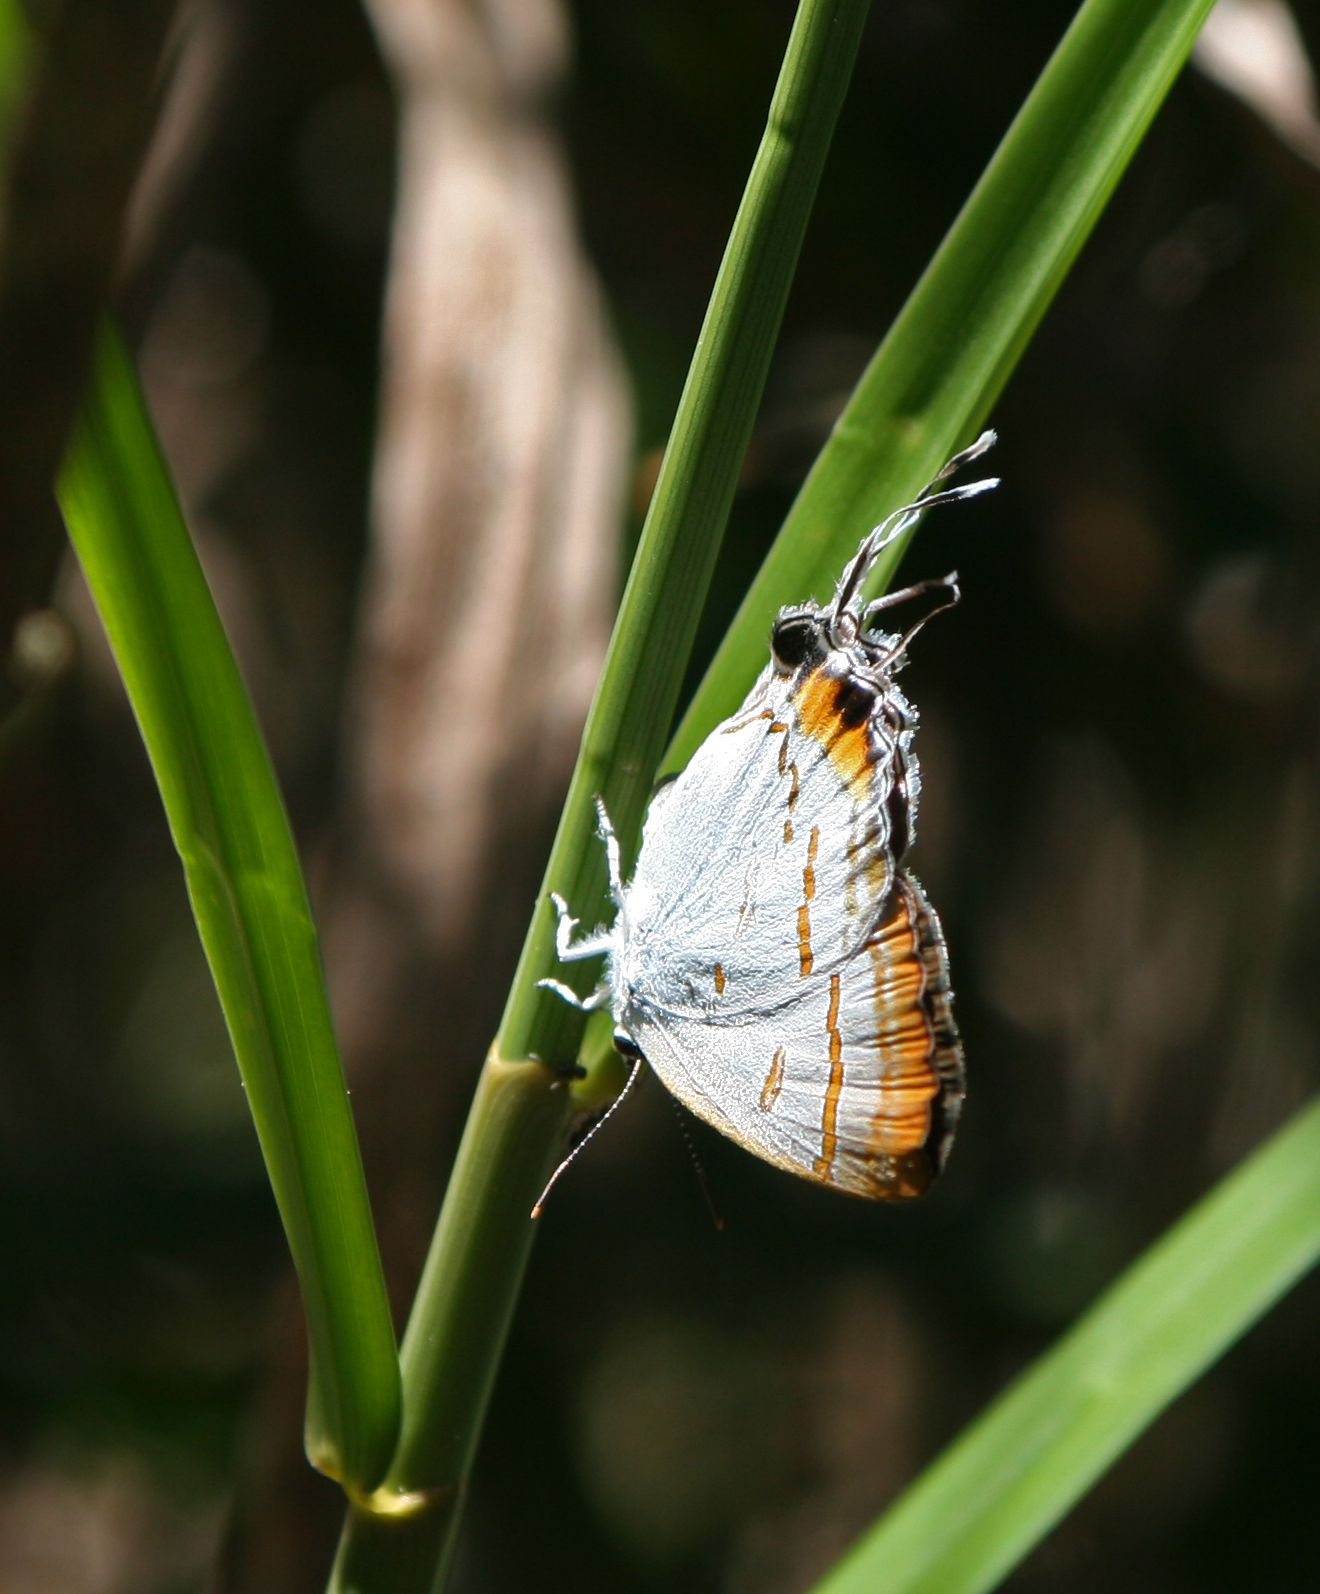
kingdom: Animalia
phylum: Arthropoda
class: Insecta
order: Lepidoptera
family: Lycaenidae
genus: Hypolycaena
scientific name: Hypolycaena thecloides
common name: Dark tit
